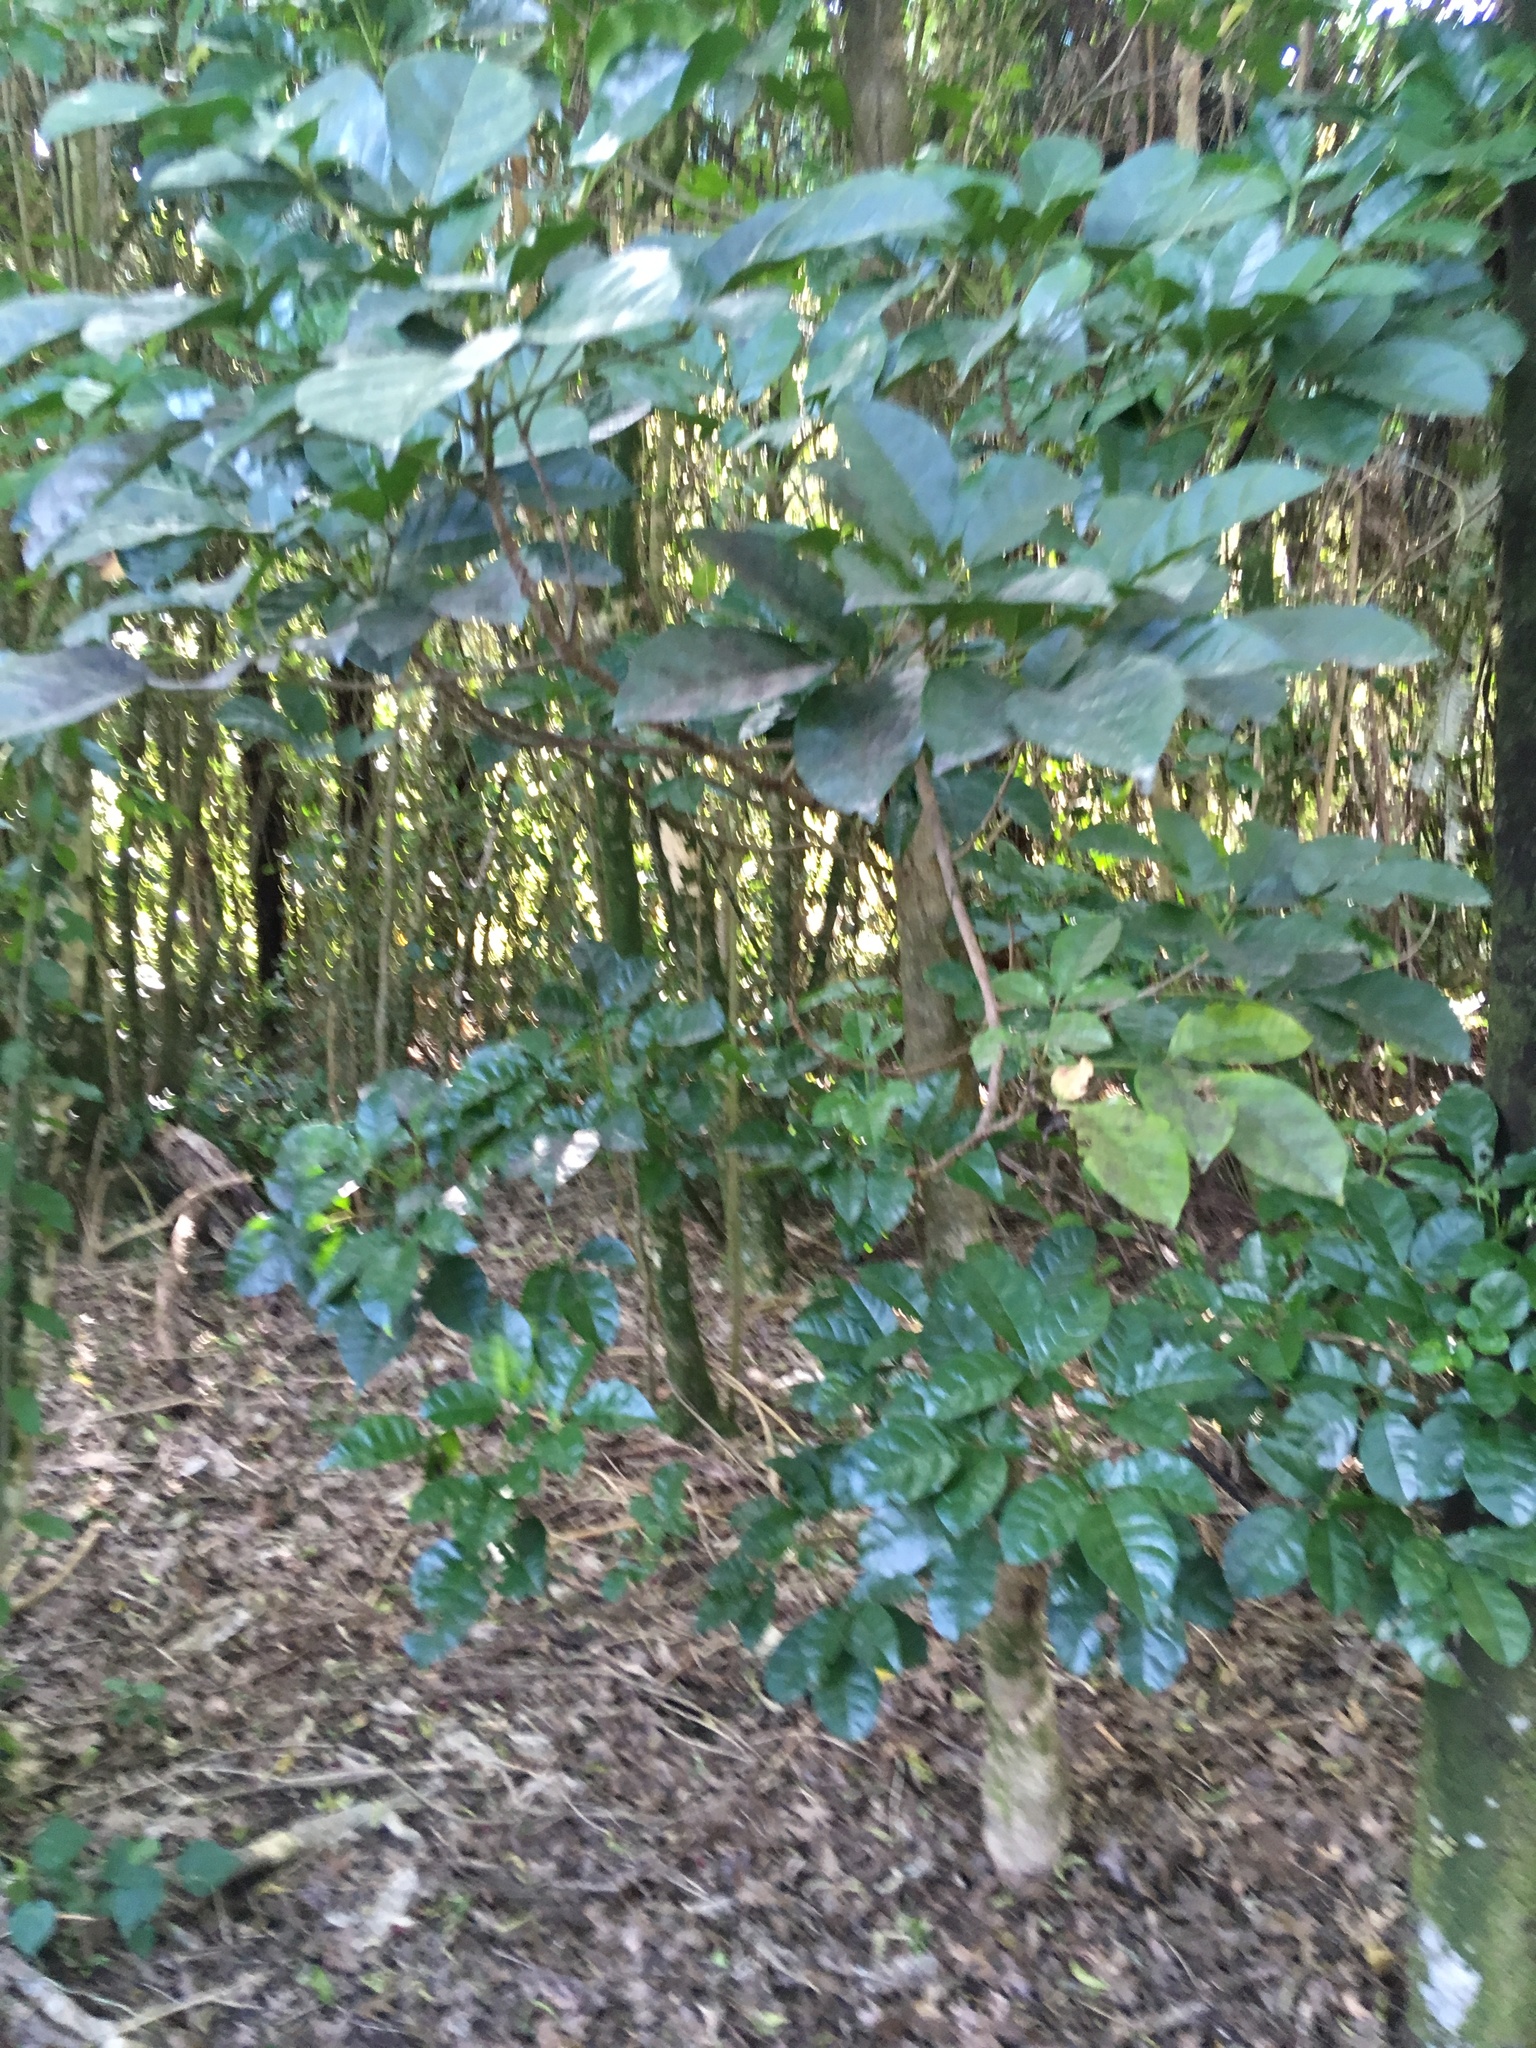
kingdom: Plantae
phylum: Tracheophyta
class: Magnoliopsida
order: Lamiales
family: Lamiaceae
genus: Vitex
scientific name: Vitex lucens
